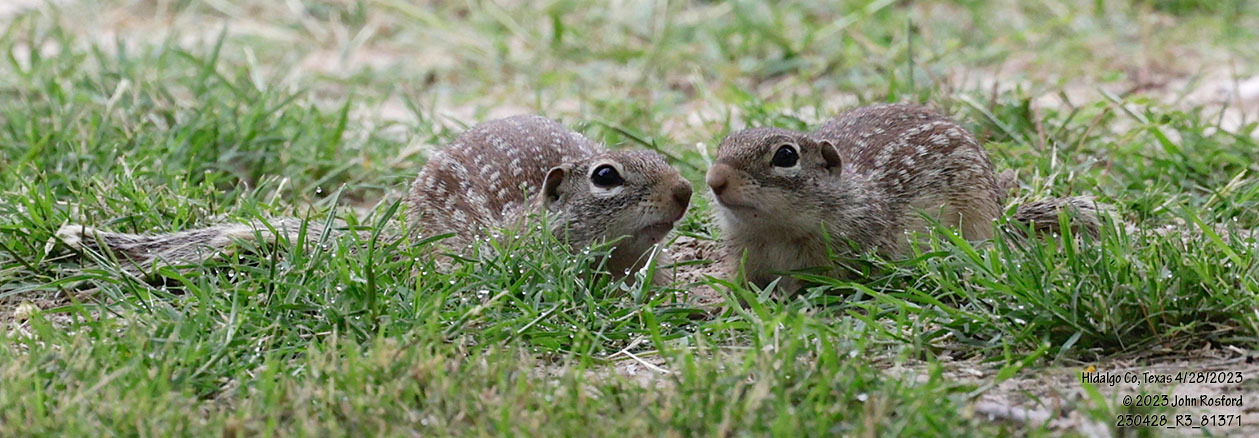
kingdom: Animalia
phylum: Chordata
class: Mammalia
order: Rodentia
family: Sciuridae
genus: Ictidomys
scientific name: Ictidomys parvidens
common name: Rio grande ground squirrel
